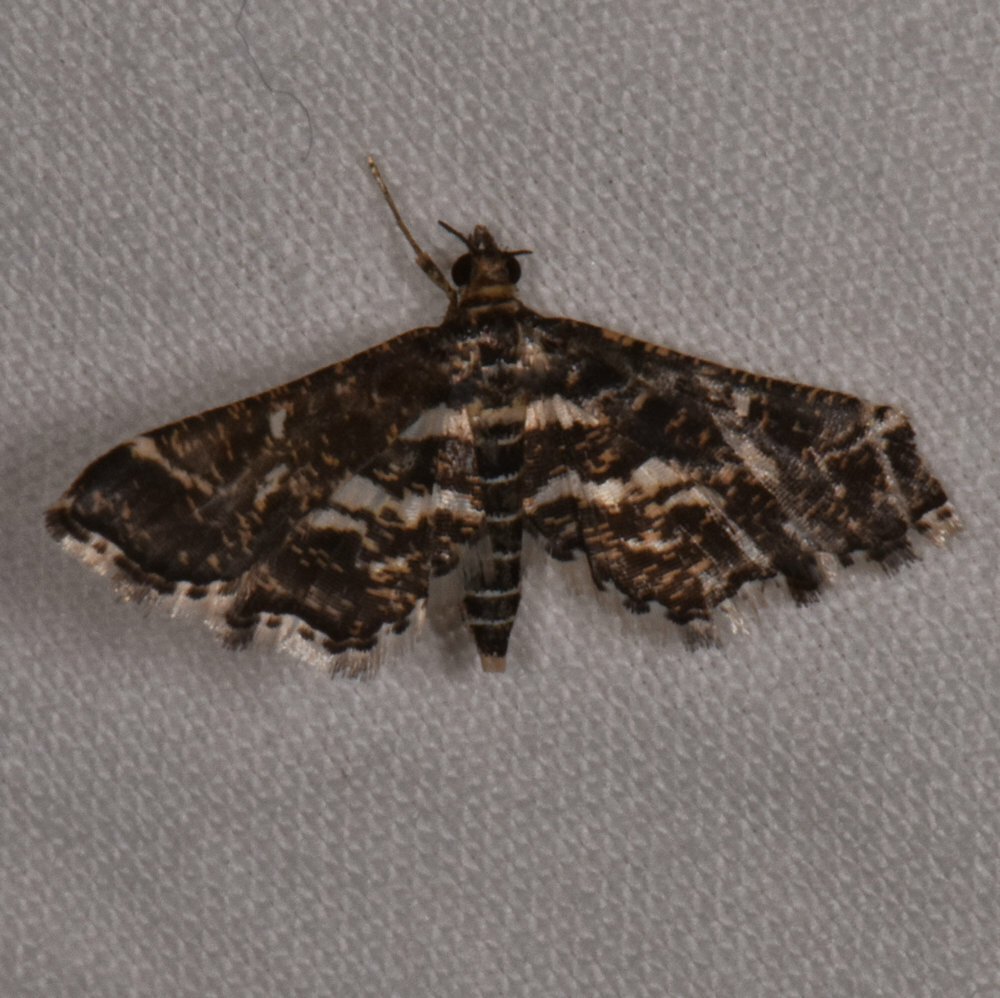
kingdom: Animalia
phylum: Arthropoda
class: Insecta
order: Lepidoptera
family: Crambidae
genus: Diasemiopsis
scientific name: Diasemiopsis ramburialis
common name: Vagrant china-mark
